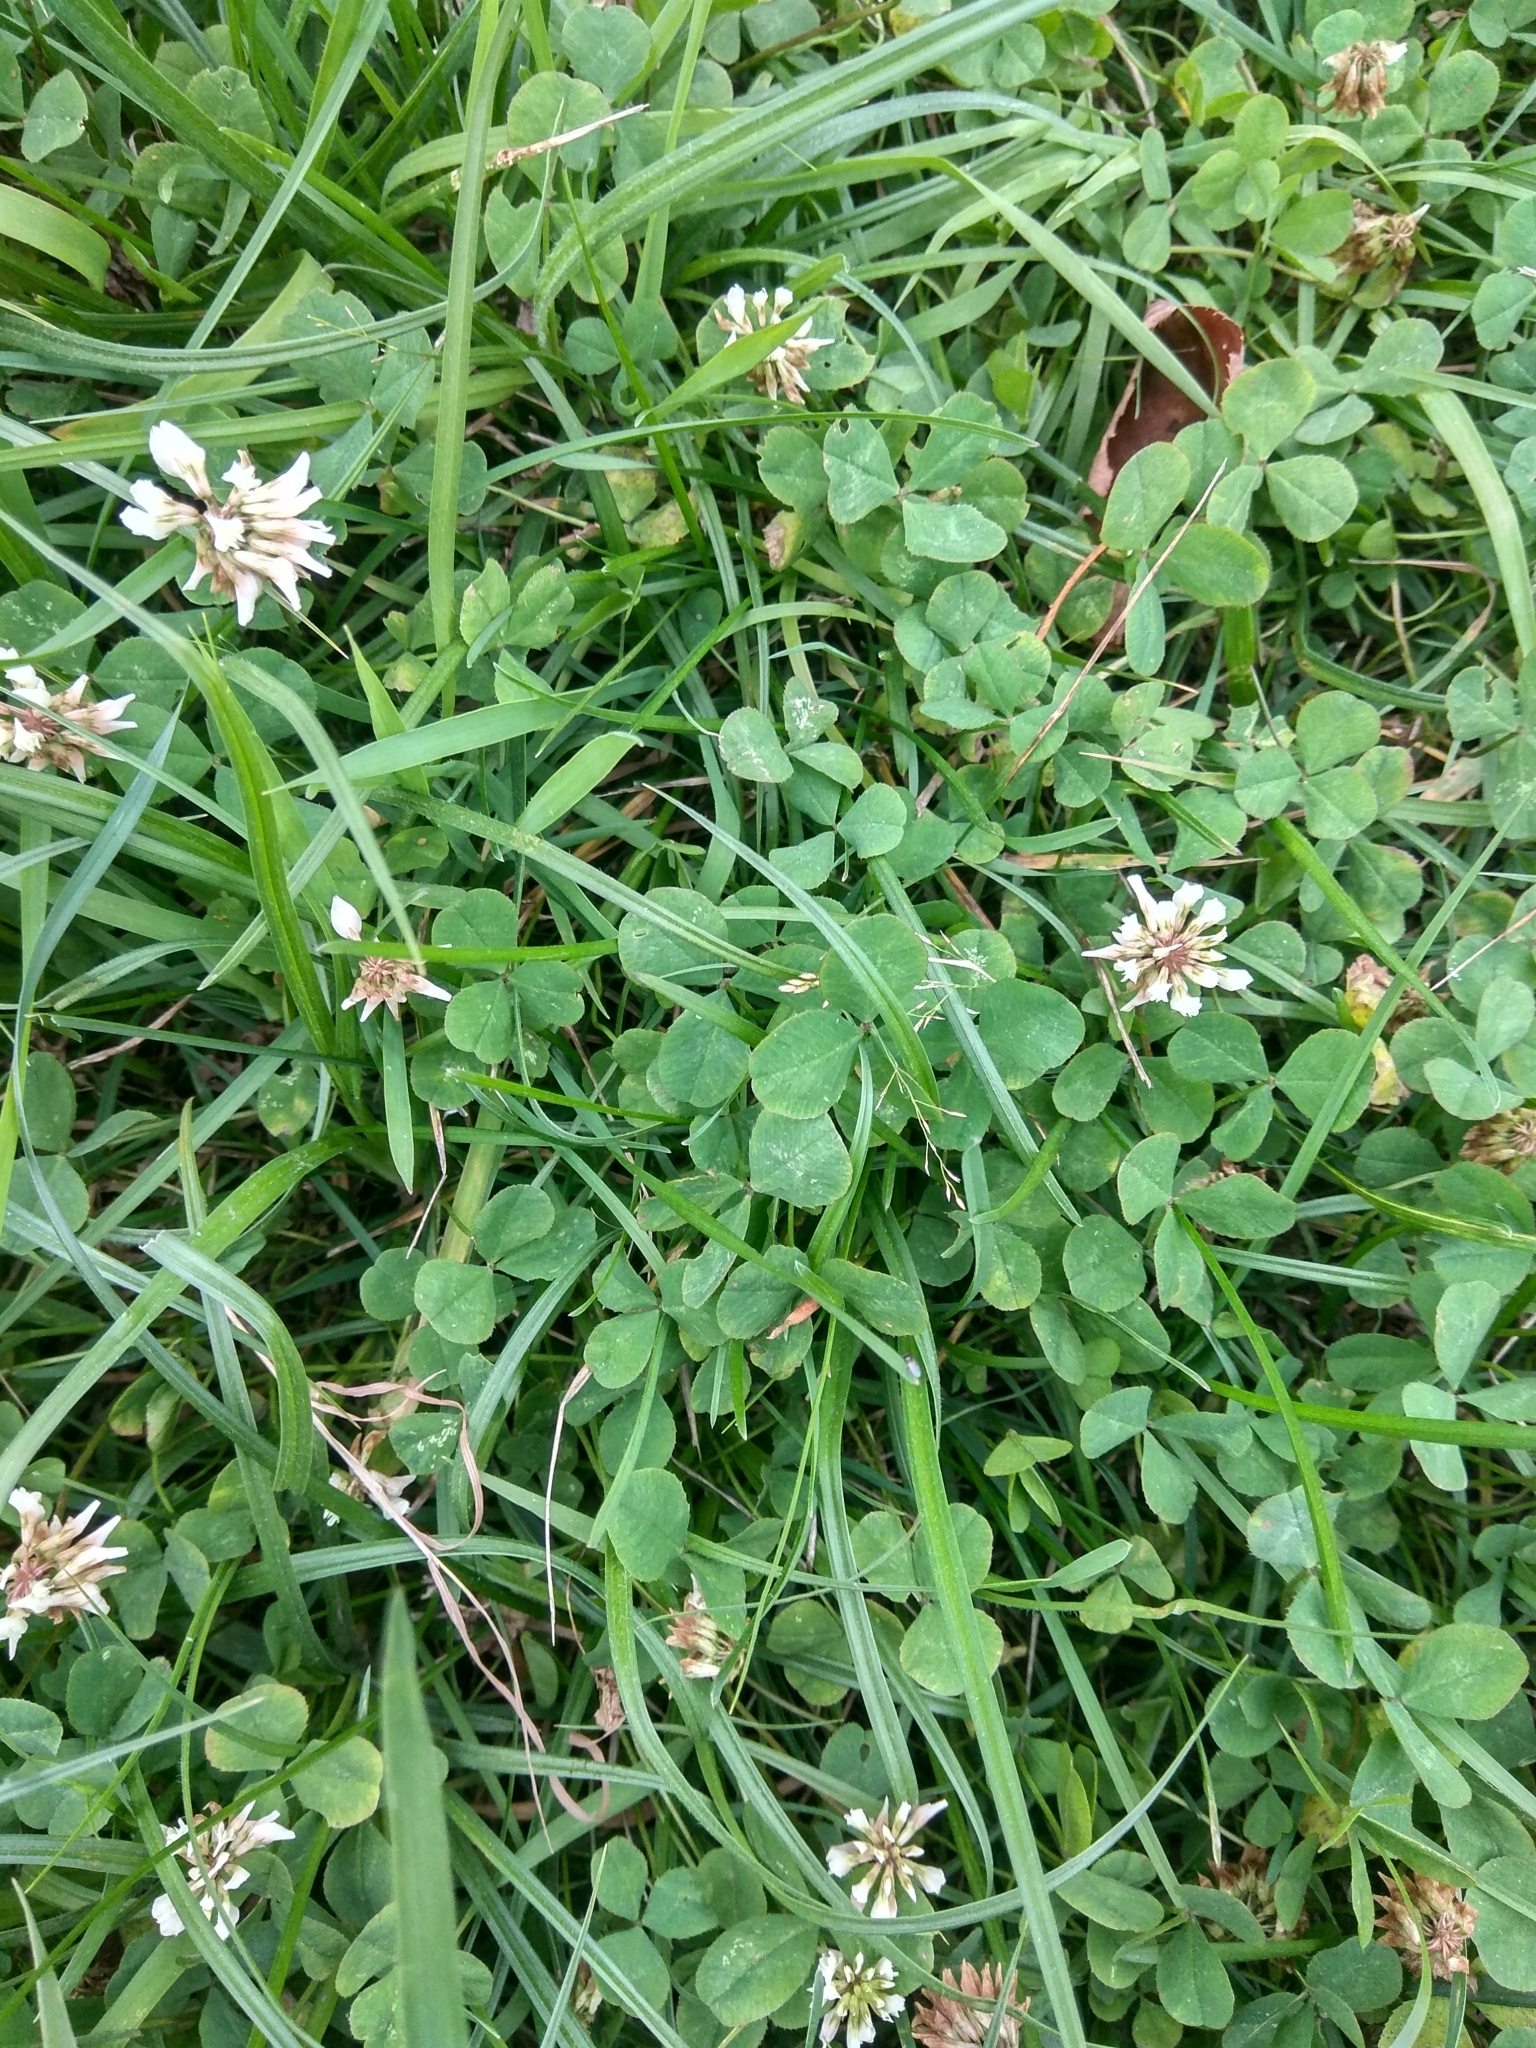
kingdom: Plantae
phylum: Tracheophyta
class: Magnoliopsida
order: Fabales
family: Fabaceae
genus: Trifolium
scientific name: Trifolium repens
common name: White clover
